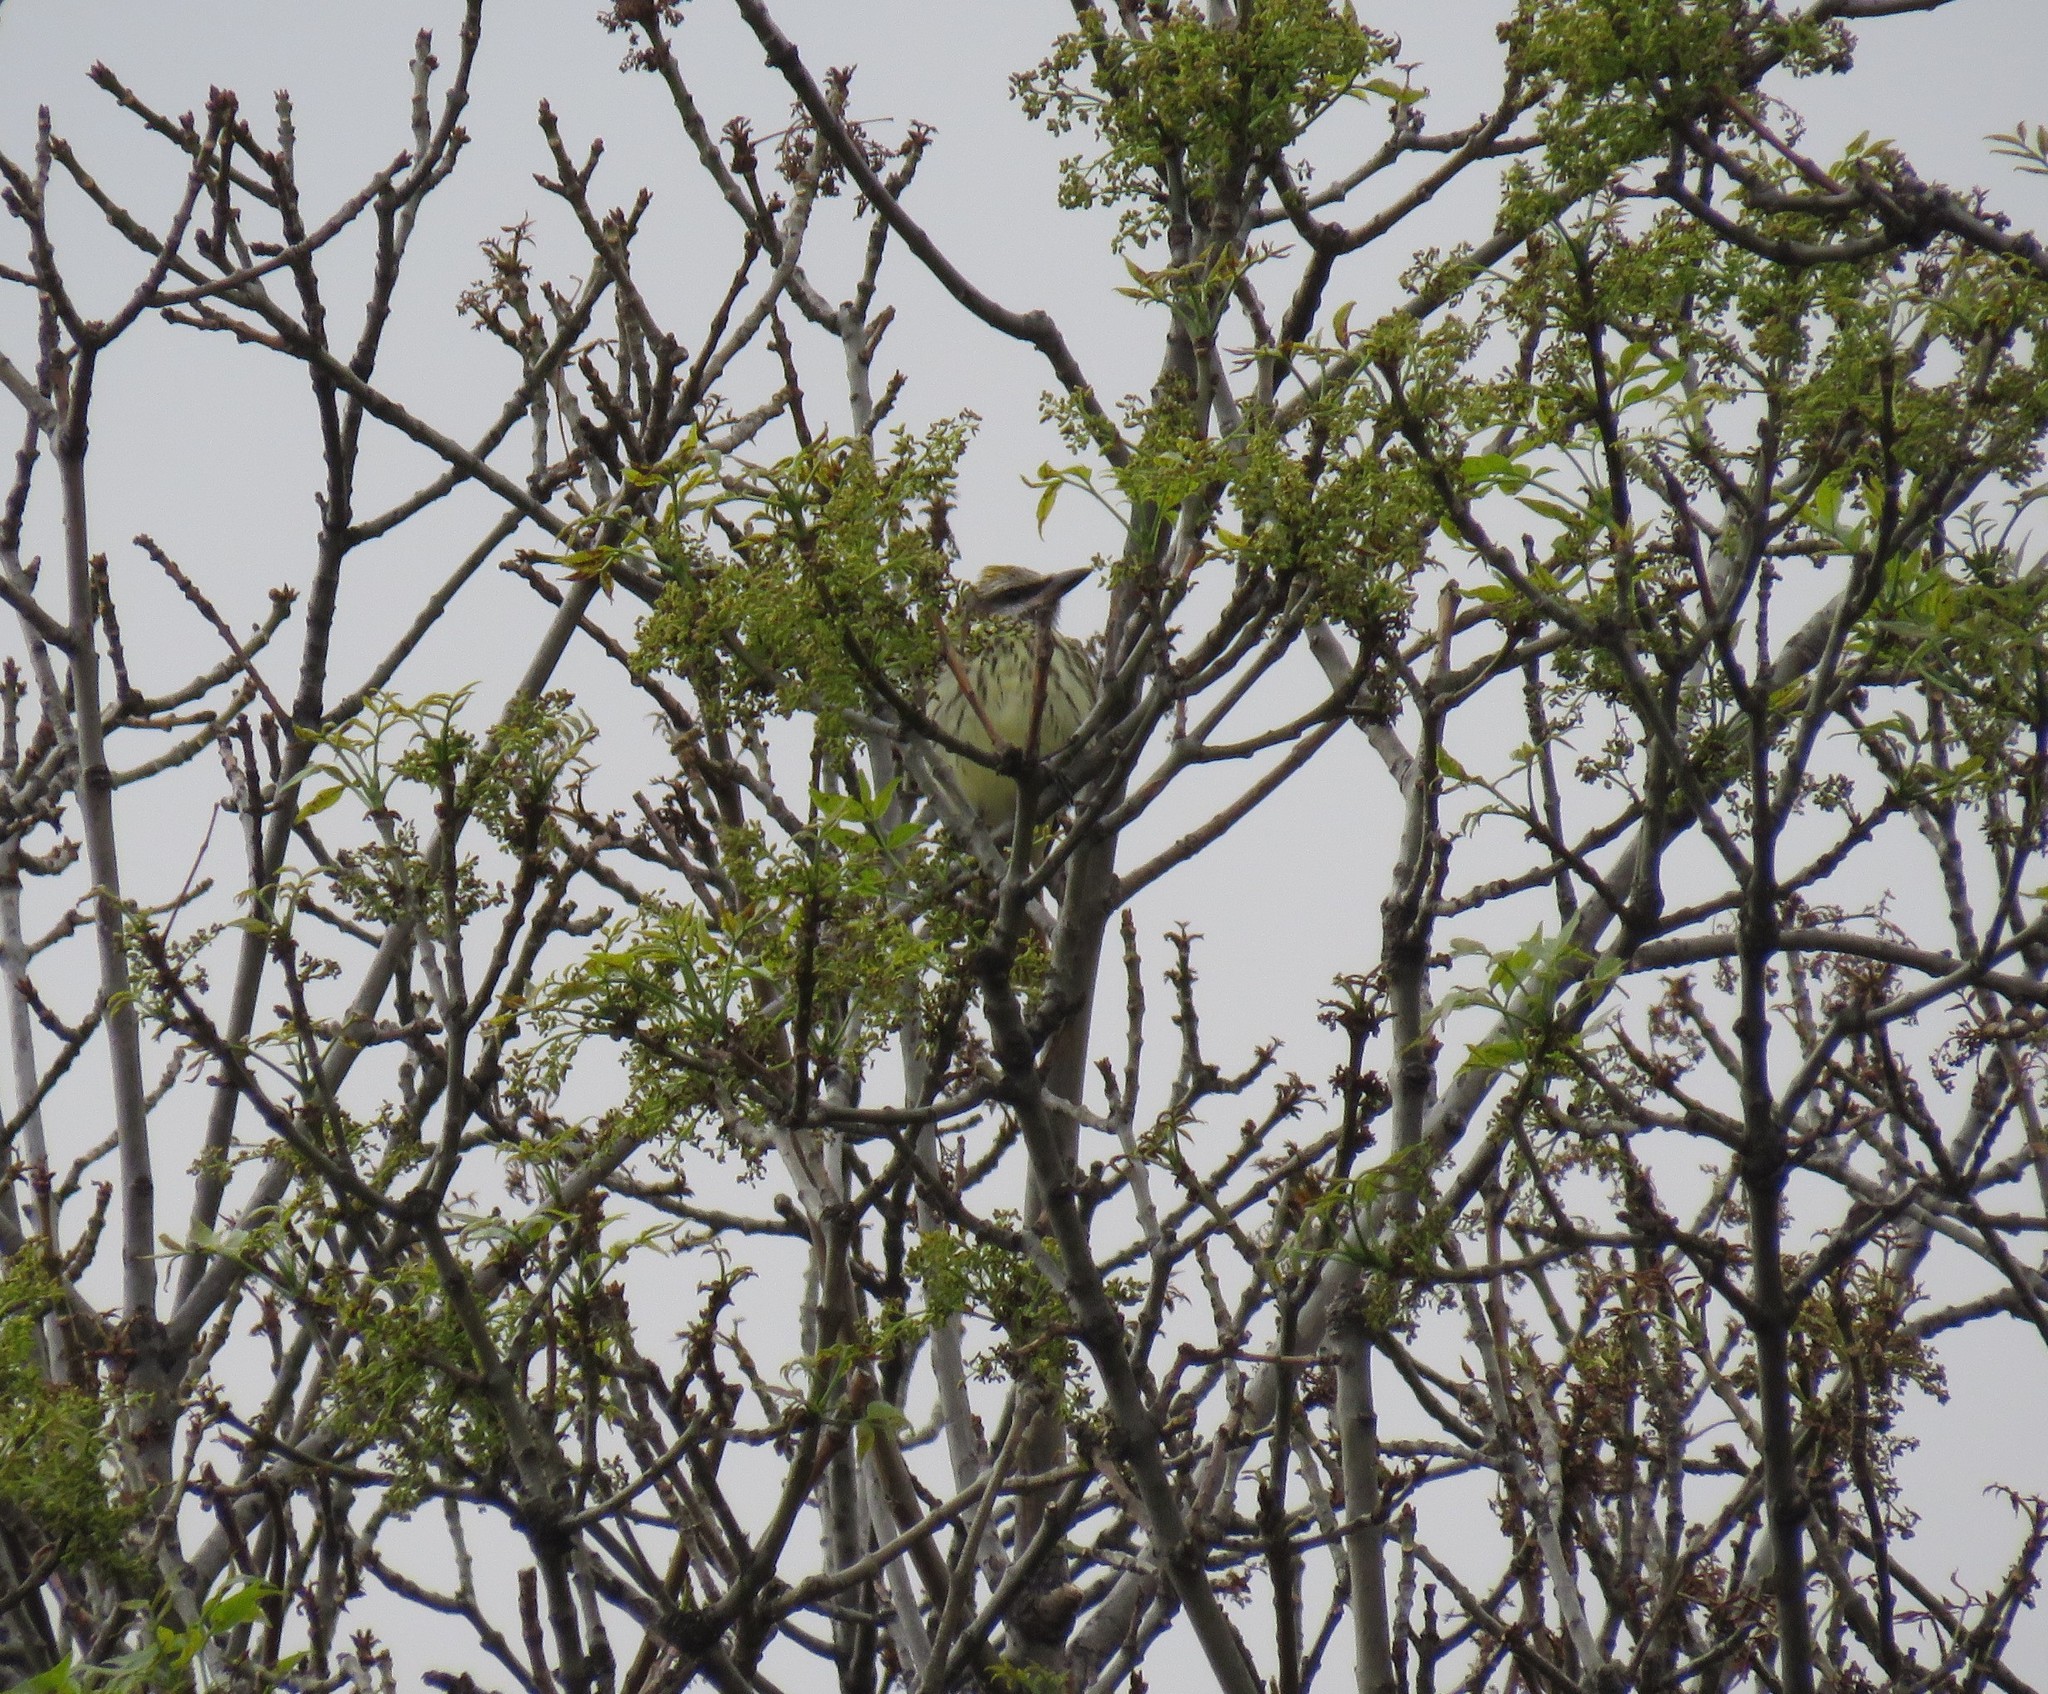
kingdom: Animalia
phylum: Chordata
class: Aves
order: Passeriformes
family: Tyrannidae
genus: Myiodynastes
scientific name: Myiodynastes luteiventris
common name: Sulphur-bellied flycatcher
